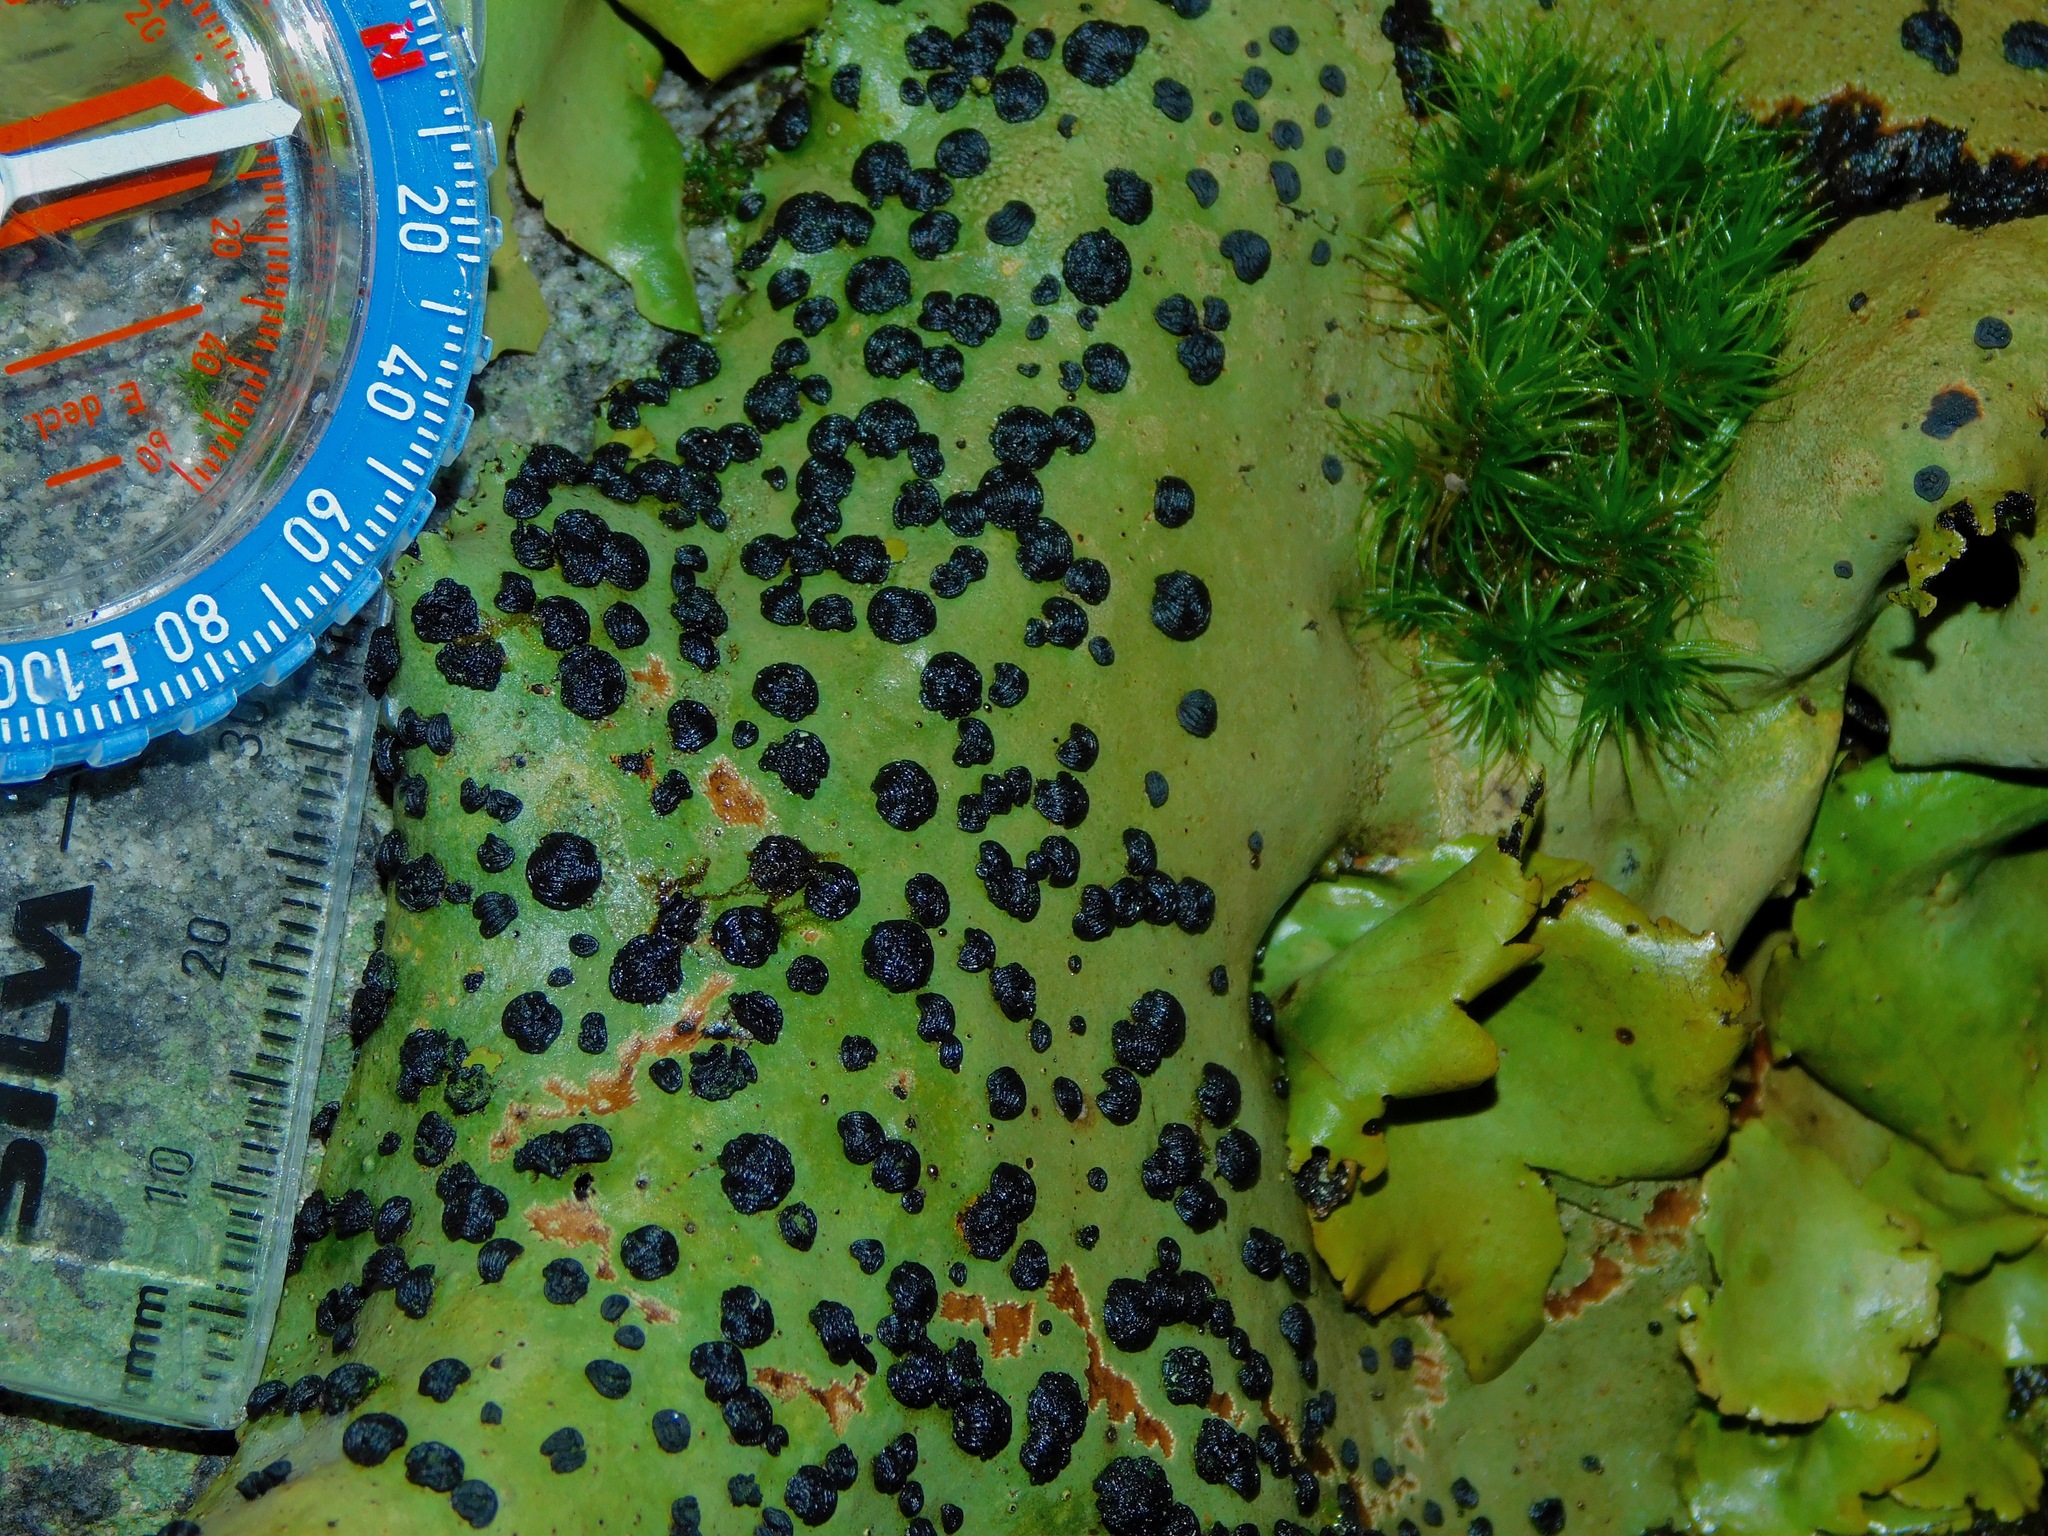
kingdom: Fungi
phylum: Ascomycota
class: Lecanoromycetes
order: Umbilicariales
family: Umbilicariaceae
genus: Umbilicaria
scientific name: Umbilicaria mammulata
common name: Smooth rock tripe
